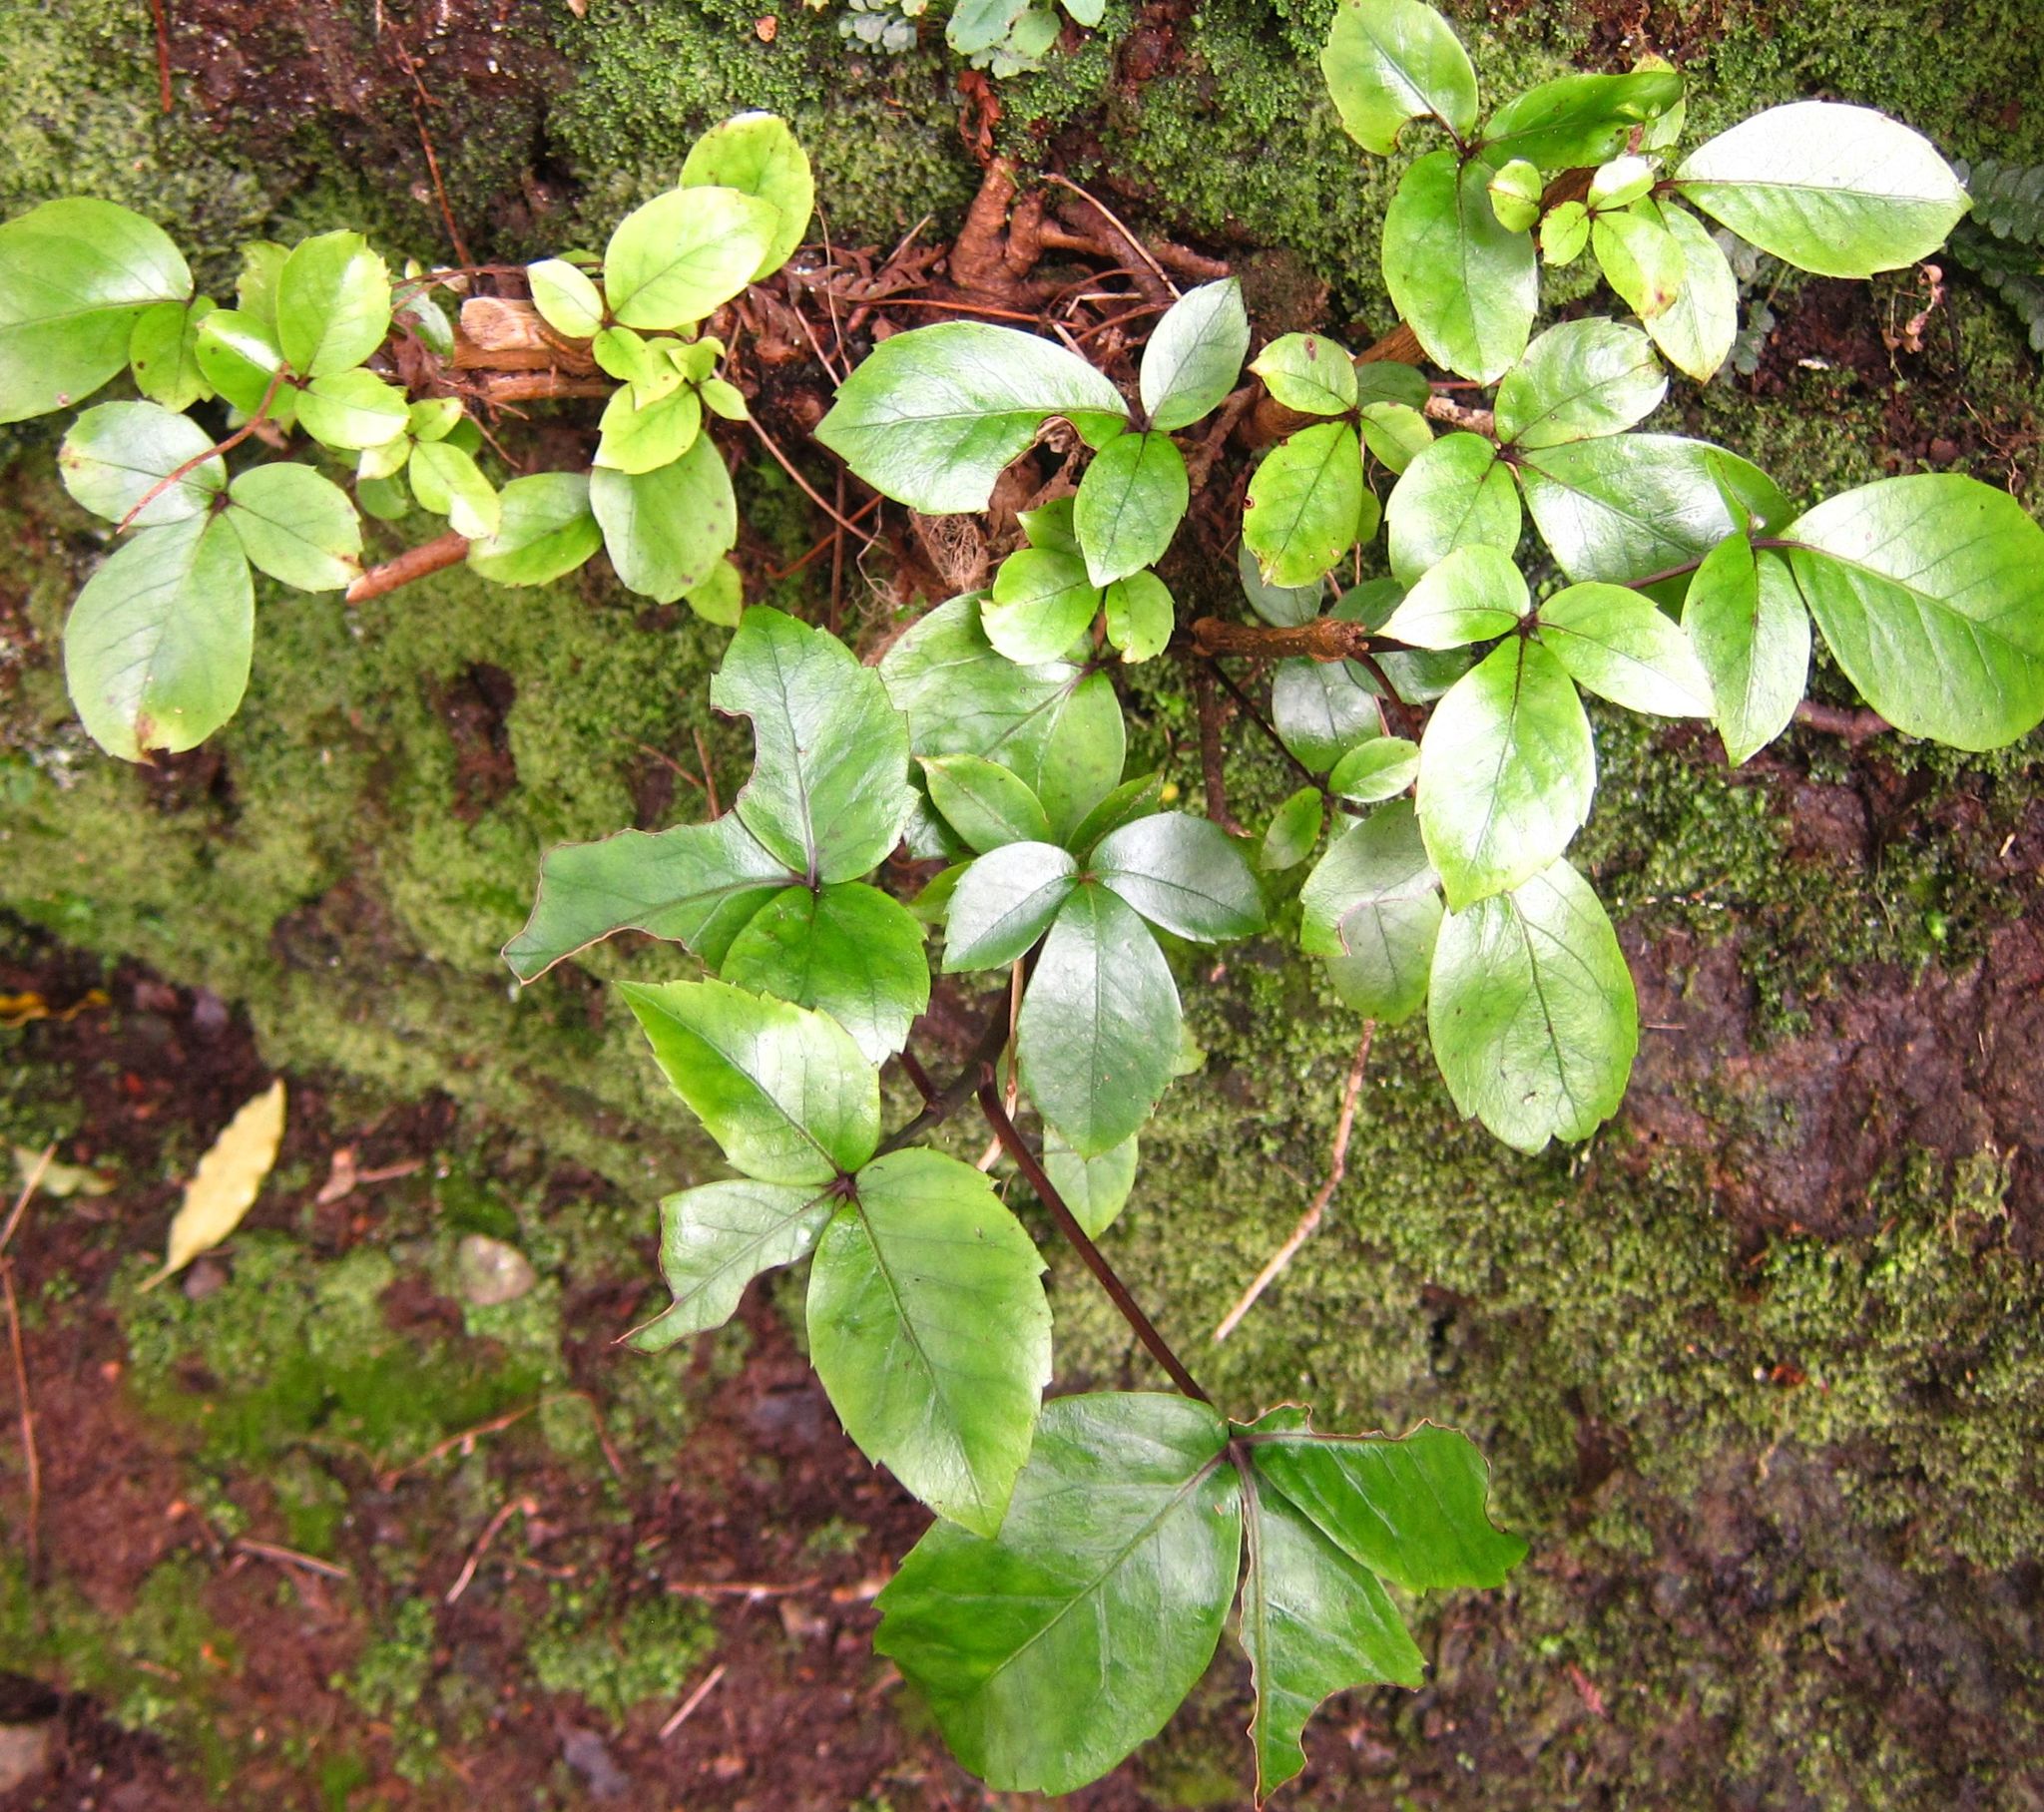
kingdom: Plantae
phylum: Tracheophyta
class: Magnoliopsida
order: Apiales
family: Araliaceae
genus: Neopanax
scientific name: Neopanax colensoi
